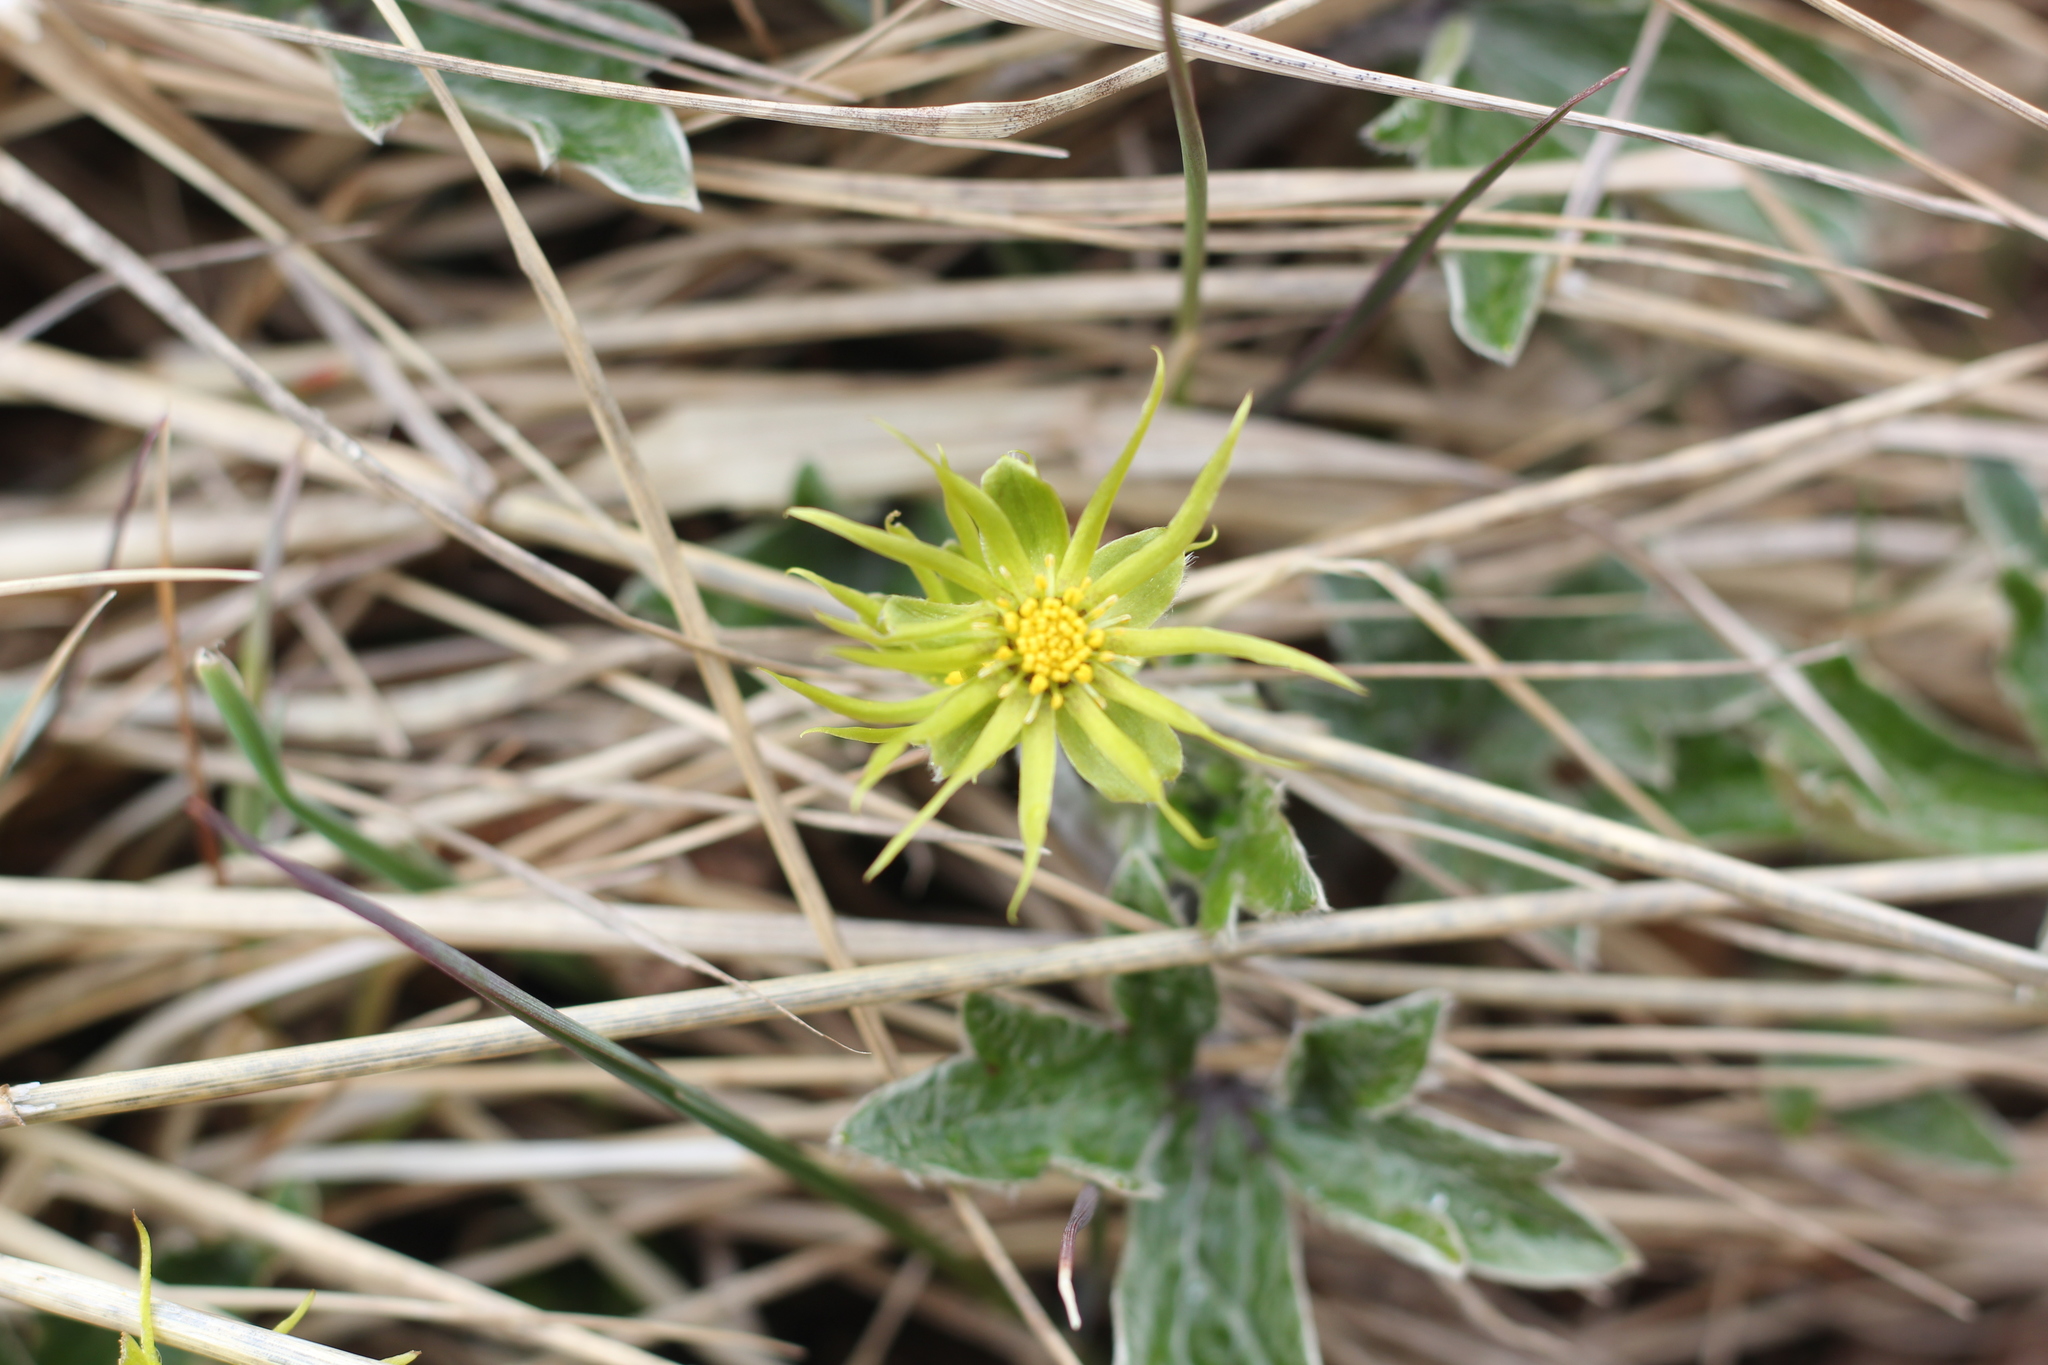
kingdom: Plantae
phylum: Tracheophyta
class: Magnoliopsida
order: Ranunculales
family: Ranunculaceae
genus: Hamadryas
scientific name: Hamadryas magellanica
